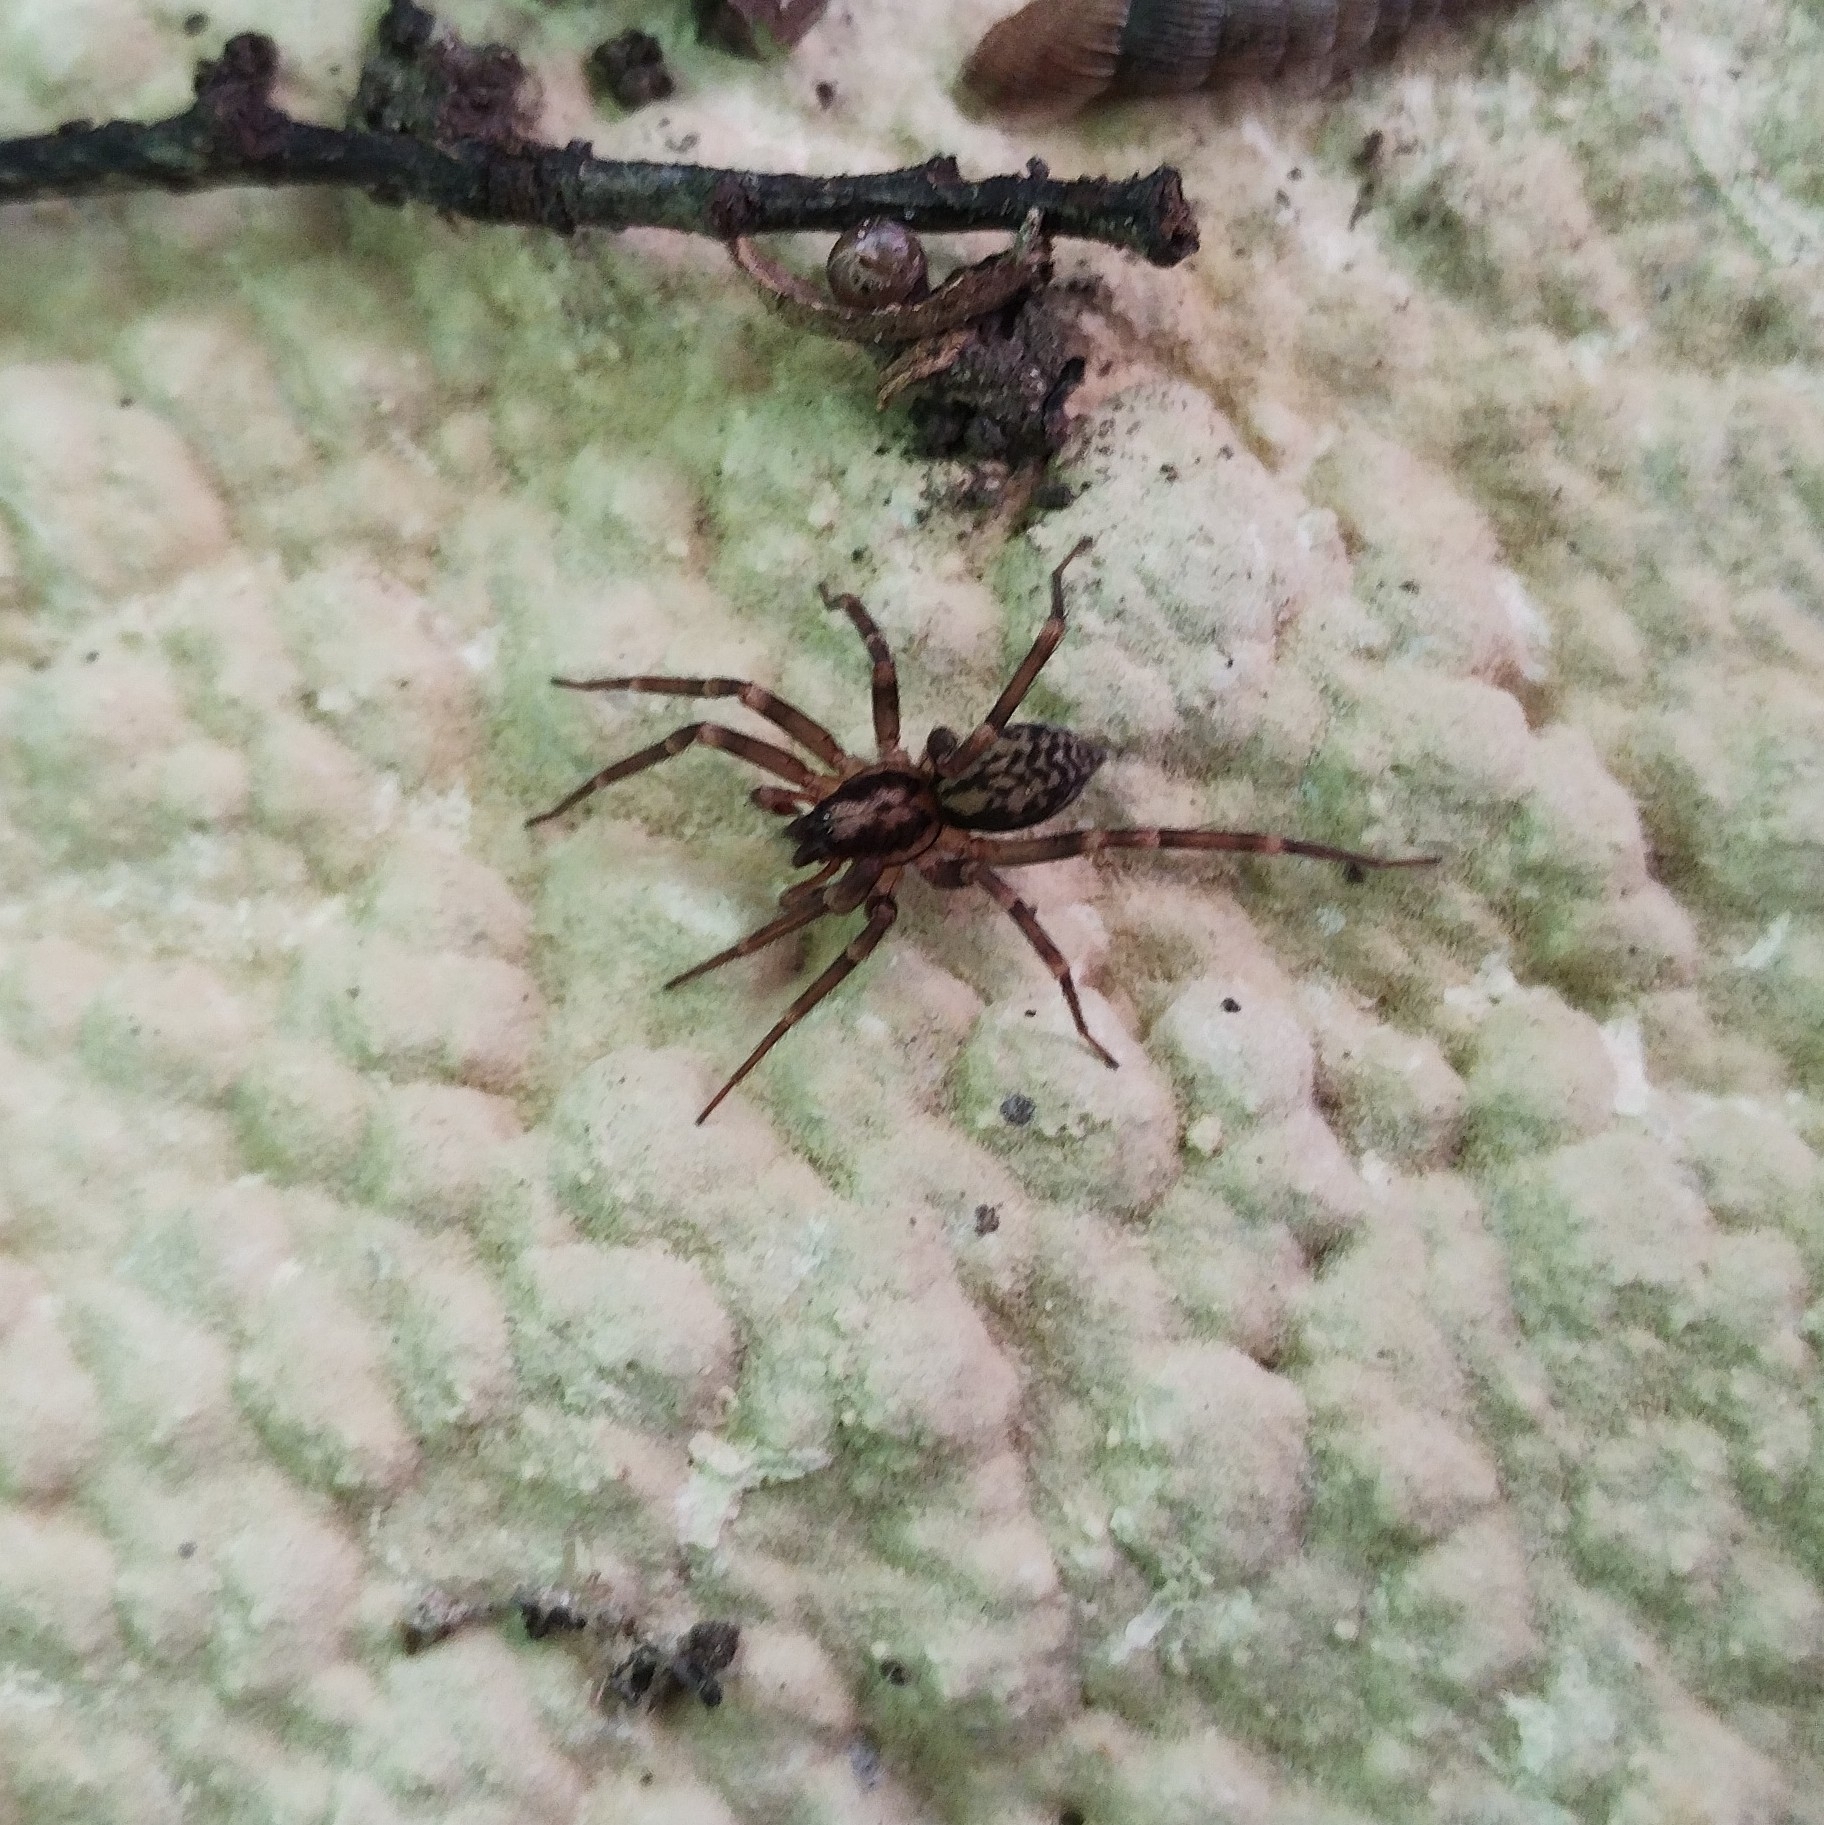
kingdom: Animalia
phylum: Arthropoda
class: Arachnida
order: Araneae
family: Liocranidae
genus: Liocranum
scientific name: Liocranum rupicola
